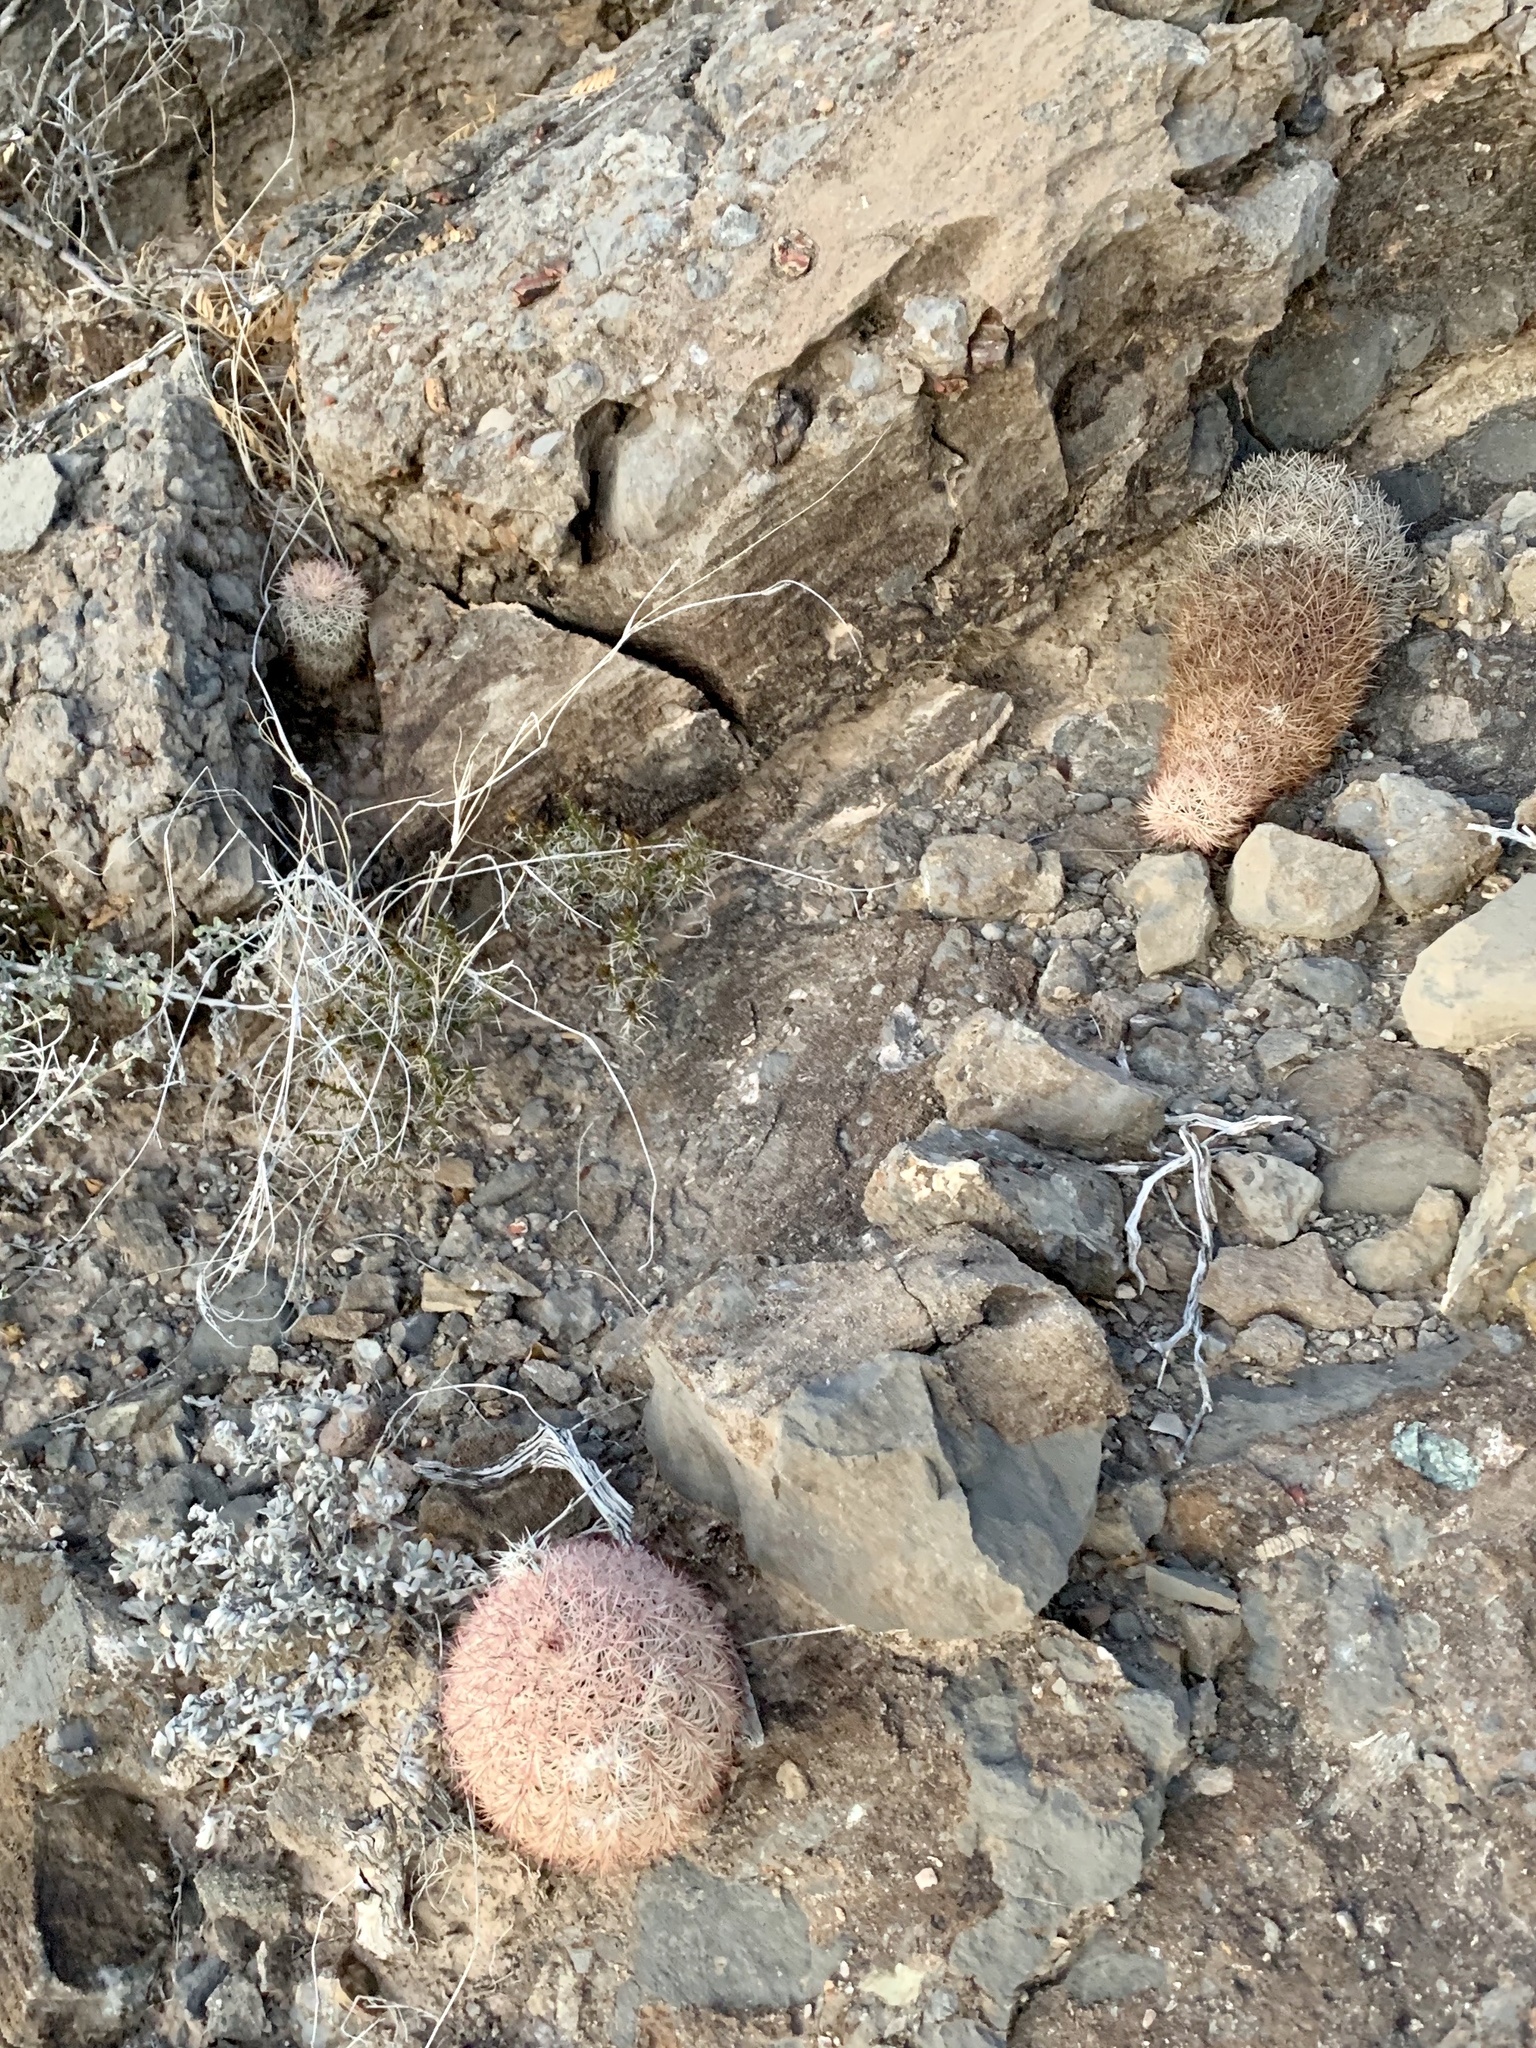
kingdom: Plantae
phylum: Tracheophyta
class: Magnoliopsida
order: Caryophyllales
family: Cactaceae
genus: Echinocereus
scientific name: Echinocereus dasyacanthus
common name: Spiny hedgehog cactus
